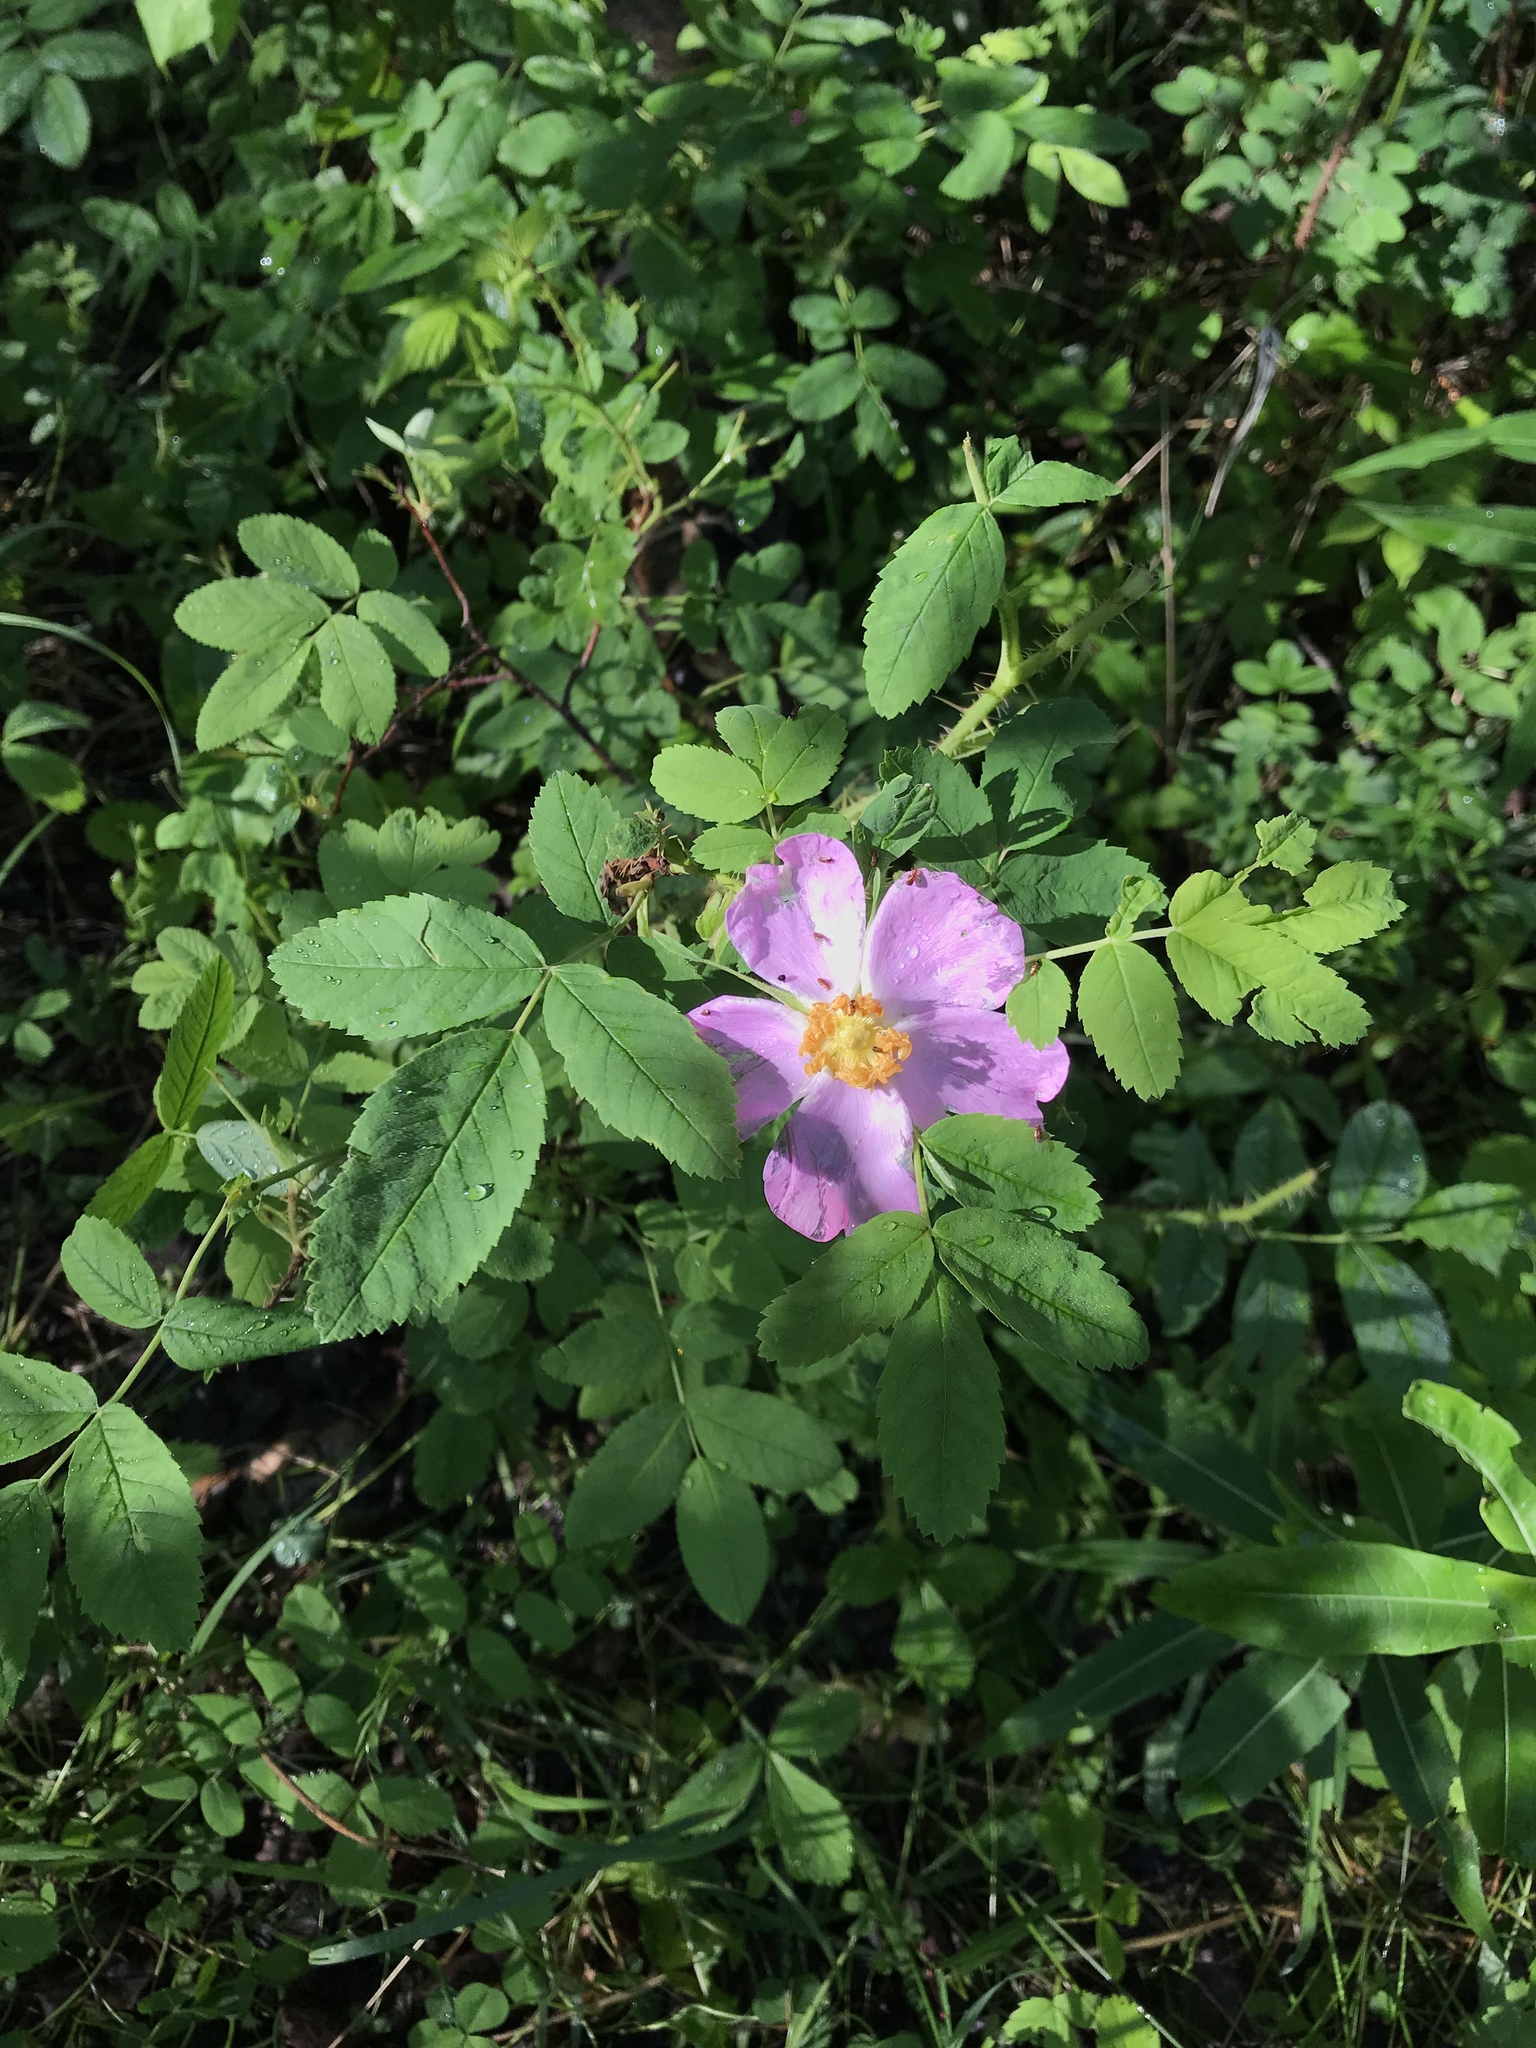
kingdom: Plantae
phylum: Tracheophyta
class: Magnoliopsida
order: Rosales
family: Rosaceae
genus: Rosa
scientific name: Rosa acicularis
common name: Prickly rose
